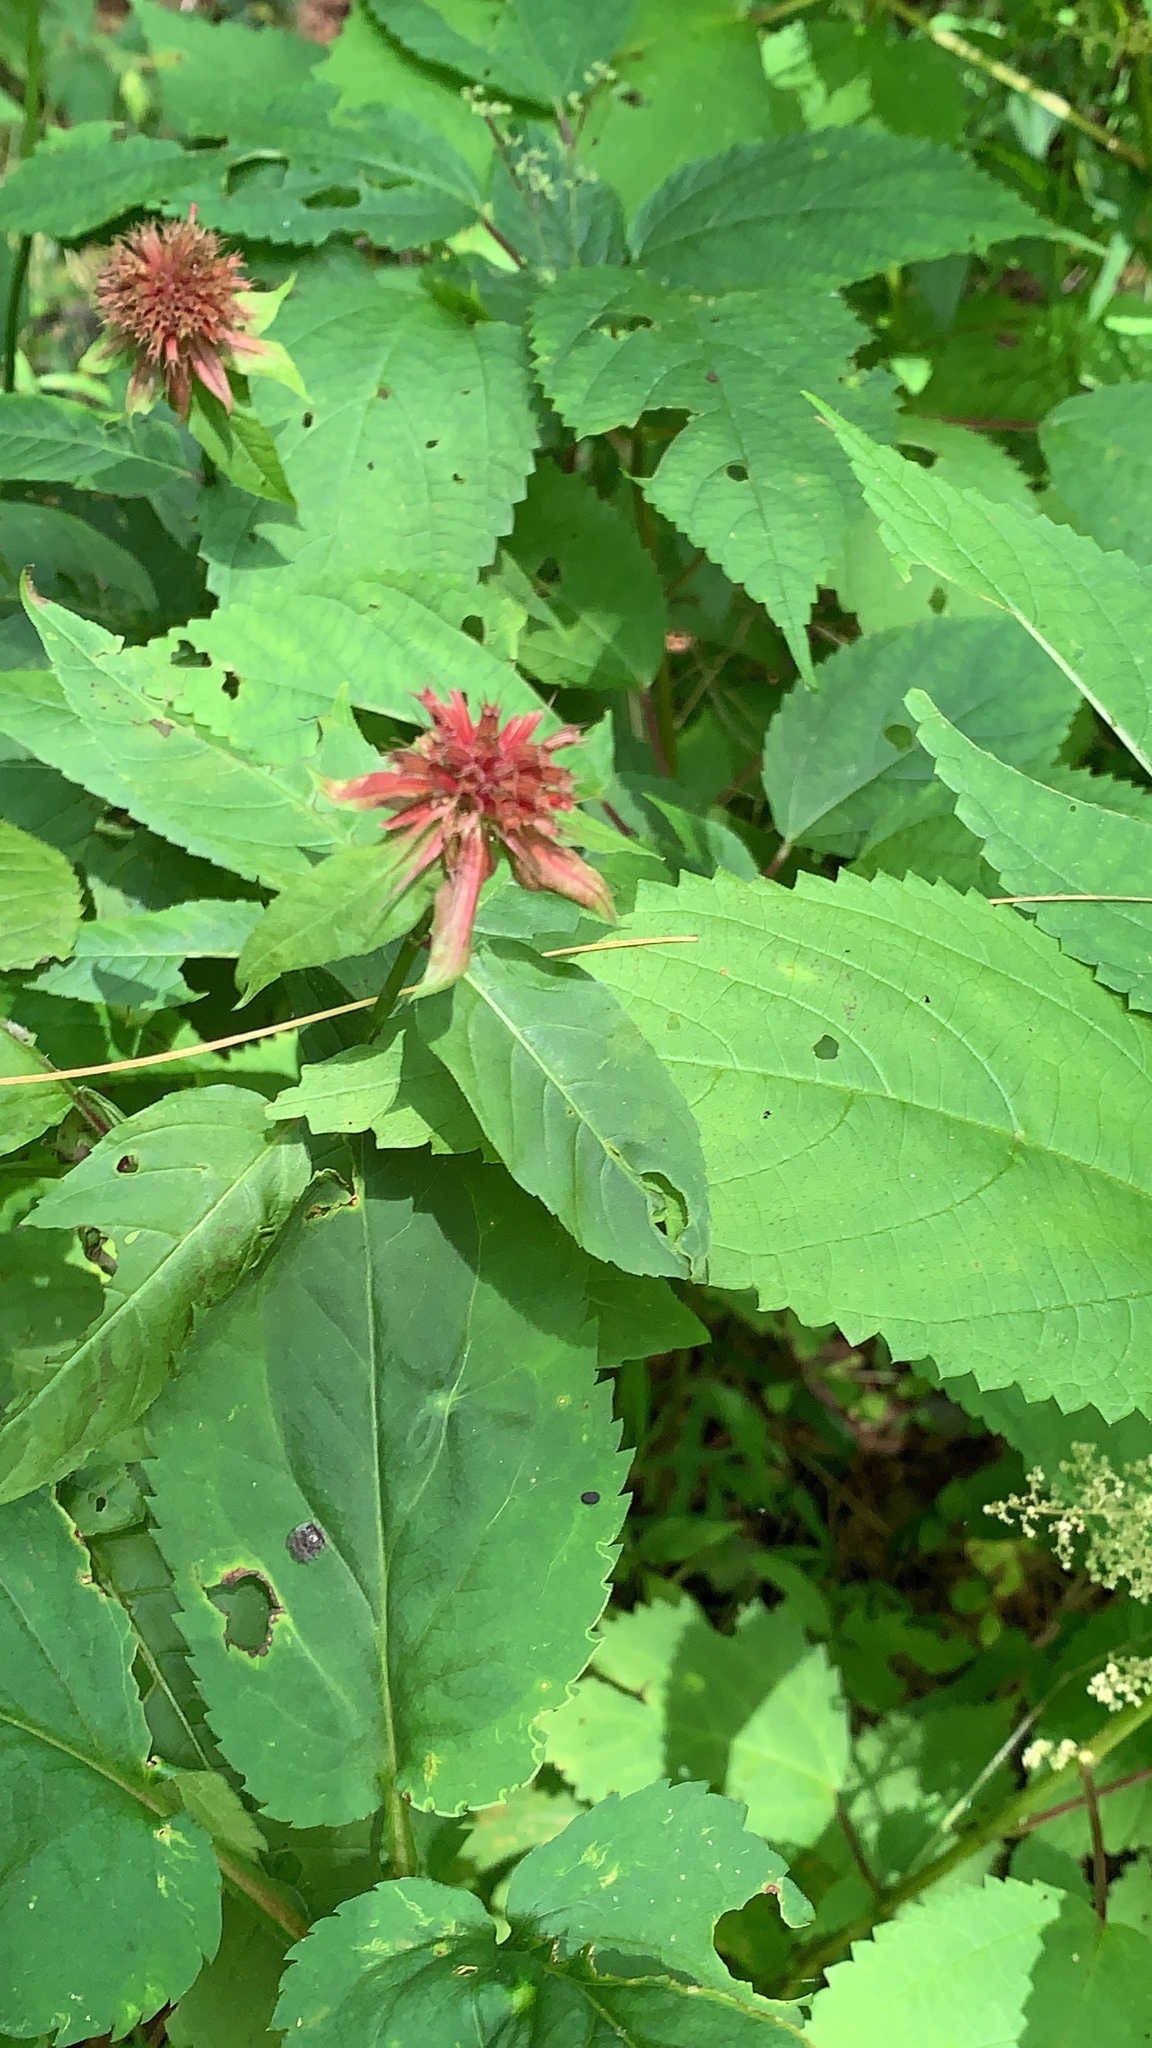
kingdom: Plantae
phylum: Tracheophyta
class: Magnoliopsida
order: Lamiales
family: Lamiaceae
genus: Monarda
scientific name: Monarda didyma
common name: Beebalm
